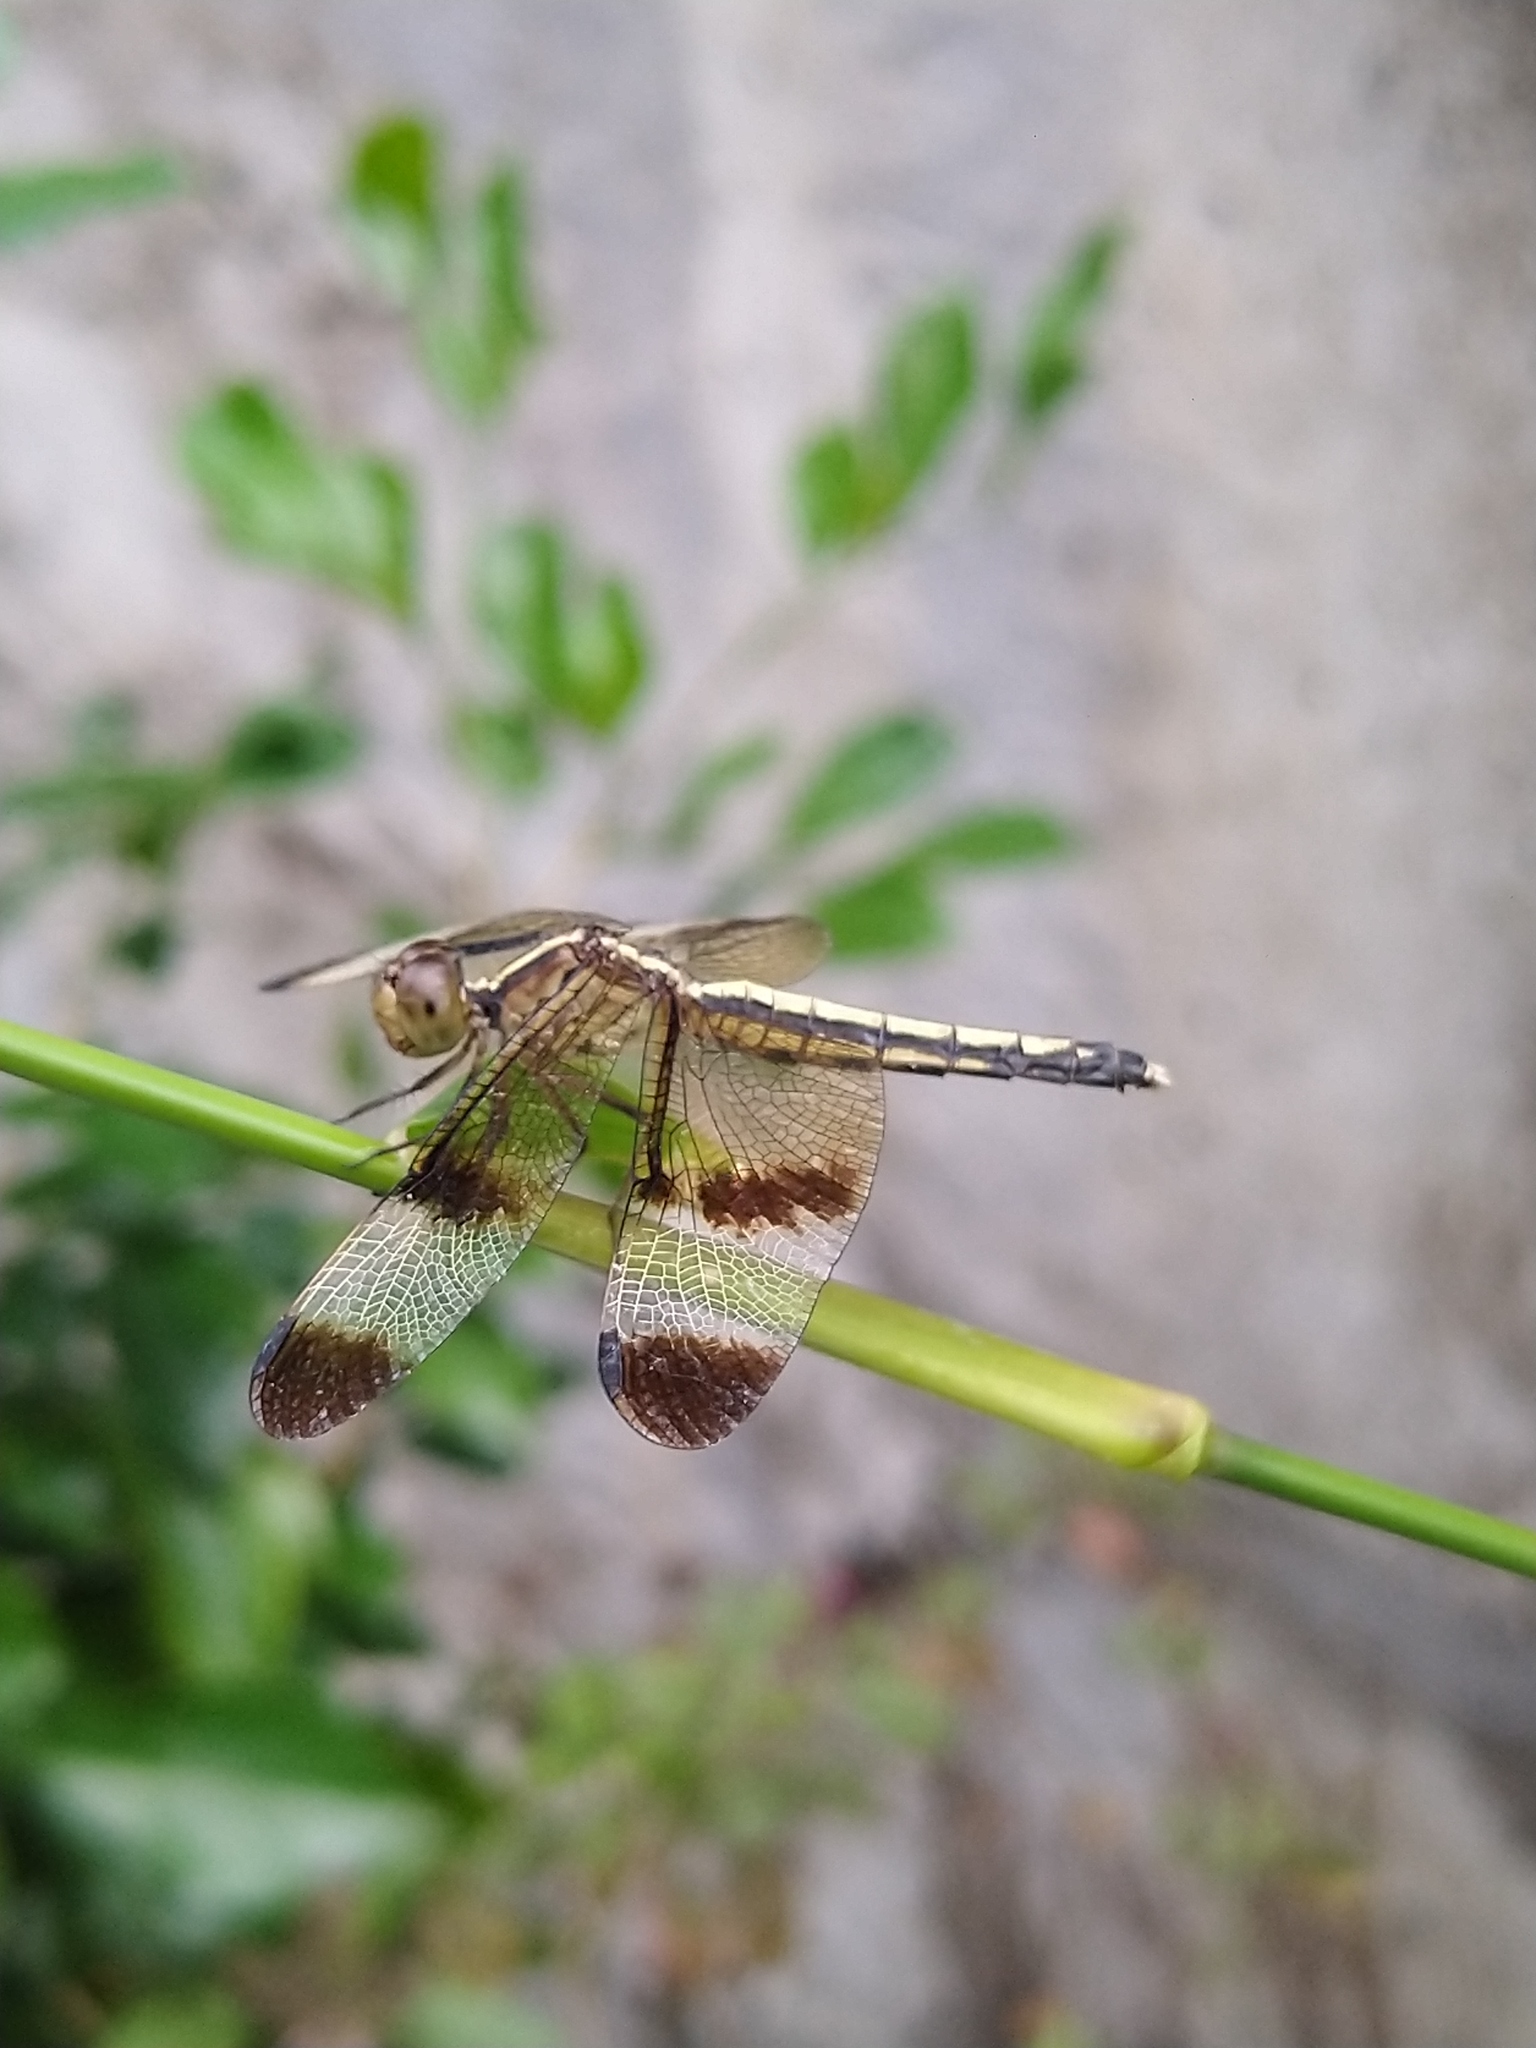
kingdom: Animalia
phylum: Arthropoda
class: Insecta
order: Odonata
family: Libellulidae
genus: Neurothemis
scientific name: Neurothemis tullia
